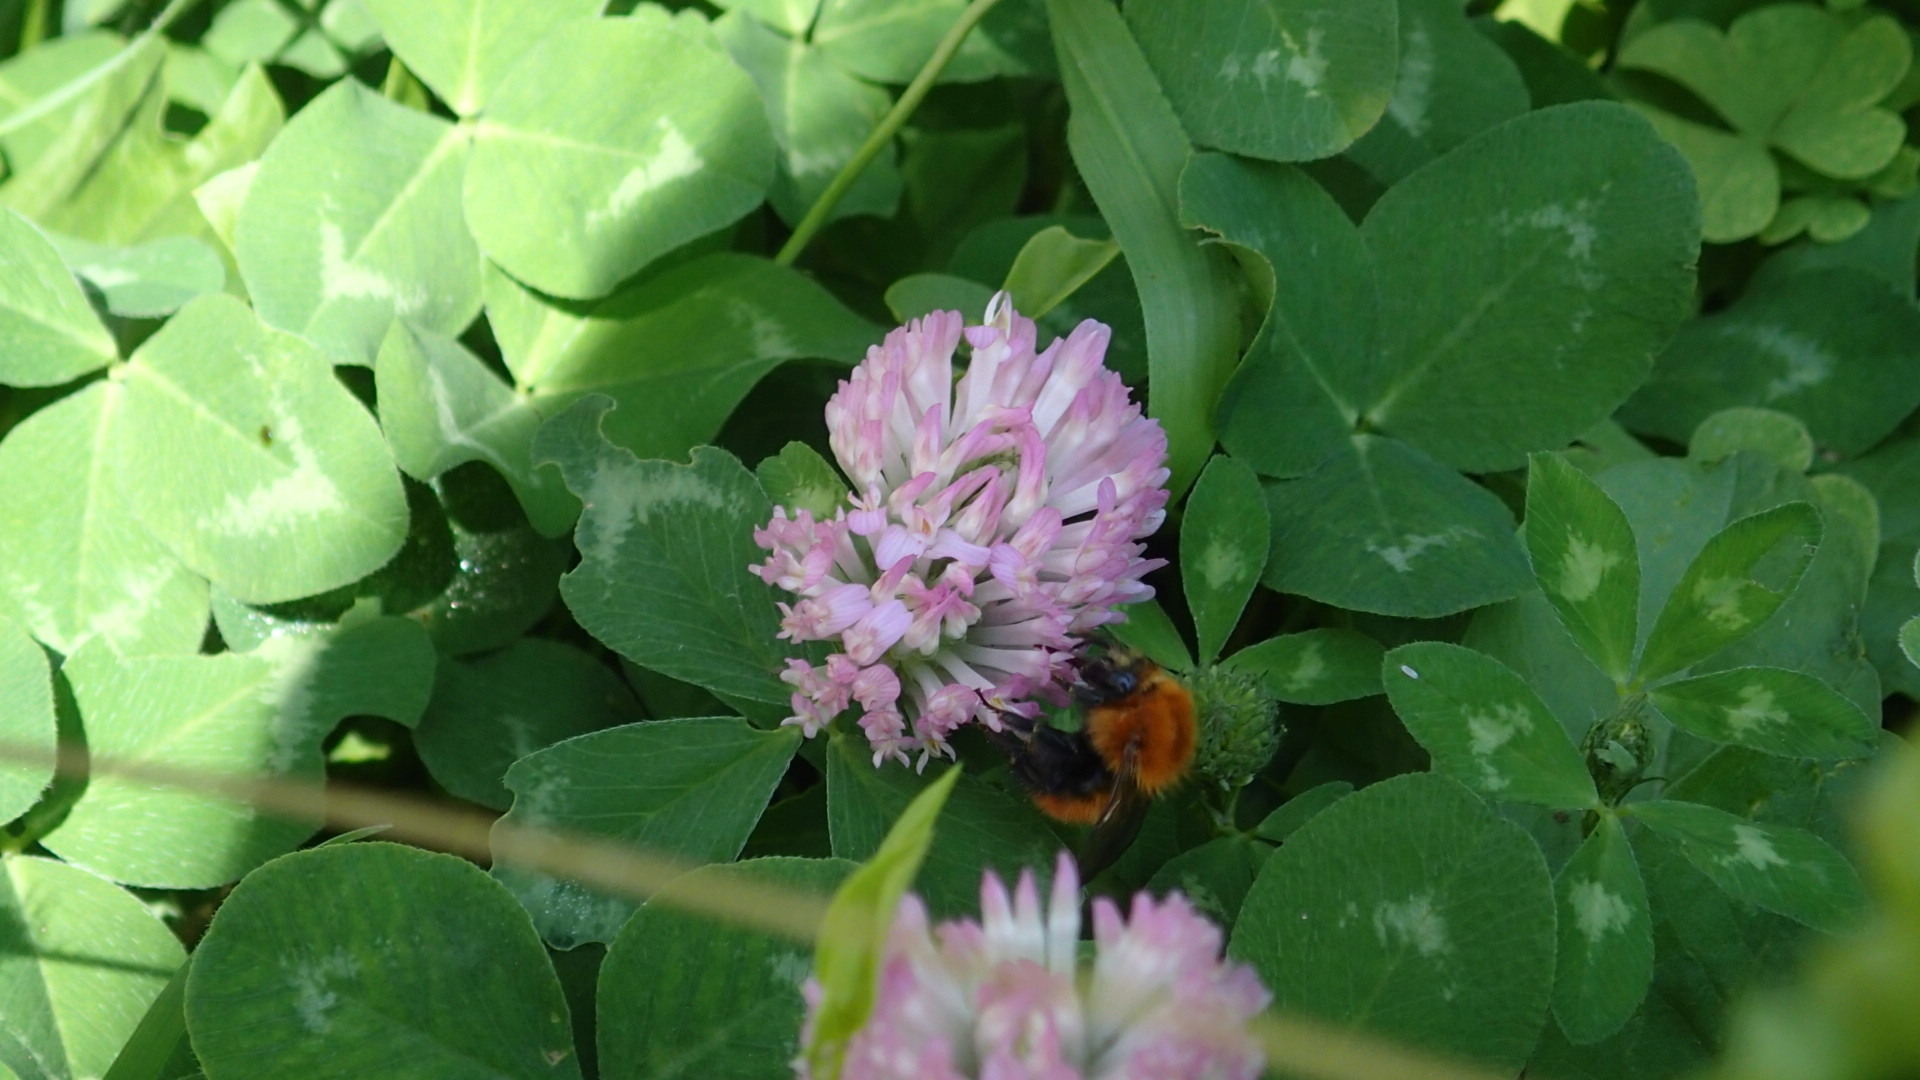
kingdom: Plantae
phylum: Tracheophyta
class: Magnoliopsida
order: Fabales
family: Fabaceae
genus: Trifolium
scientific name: Trifolium pratense
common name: Red clover
